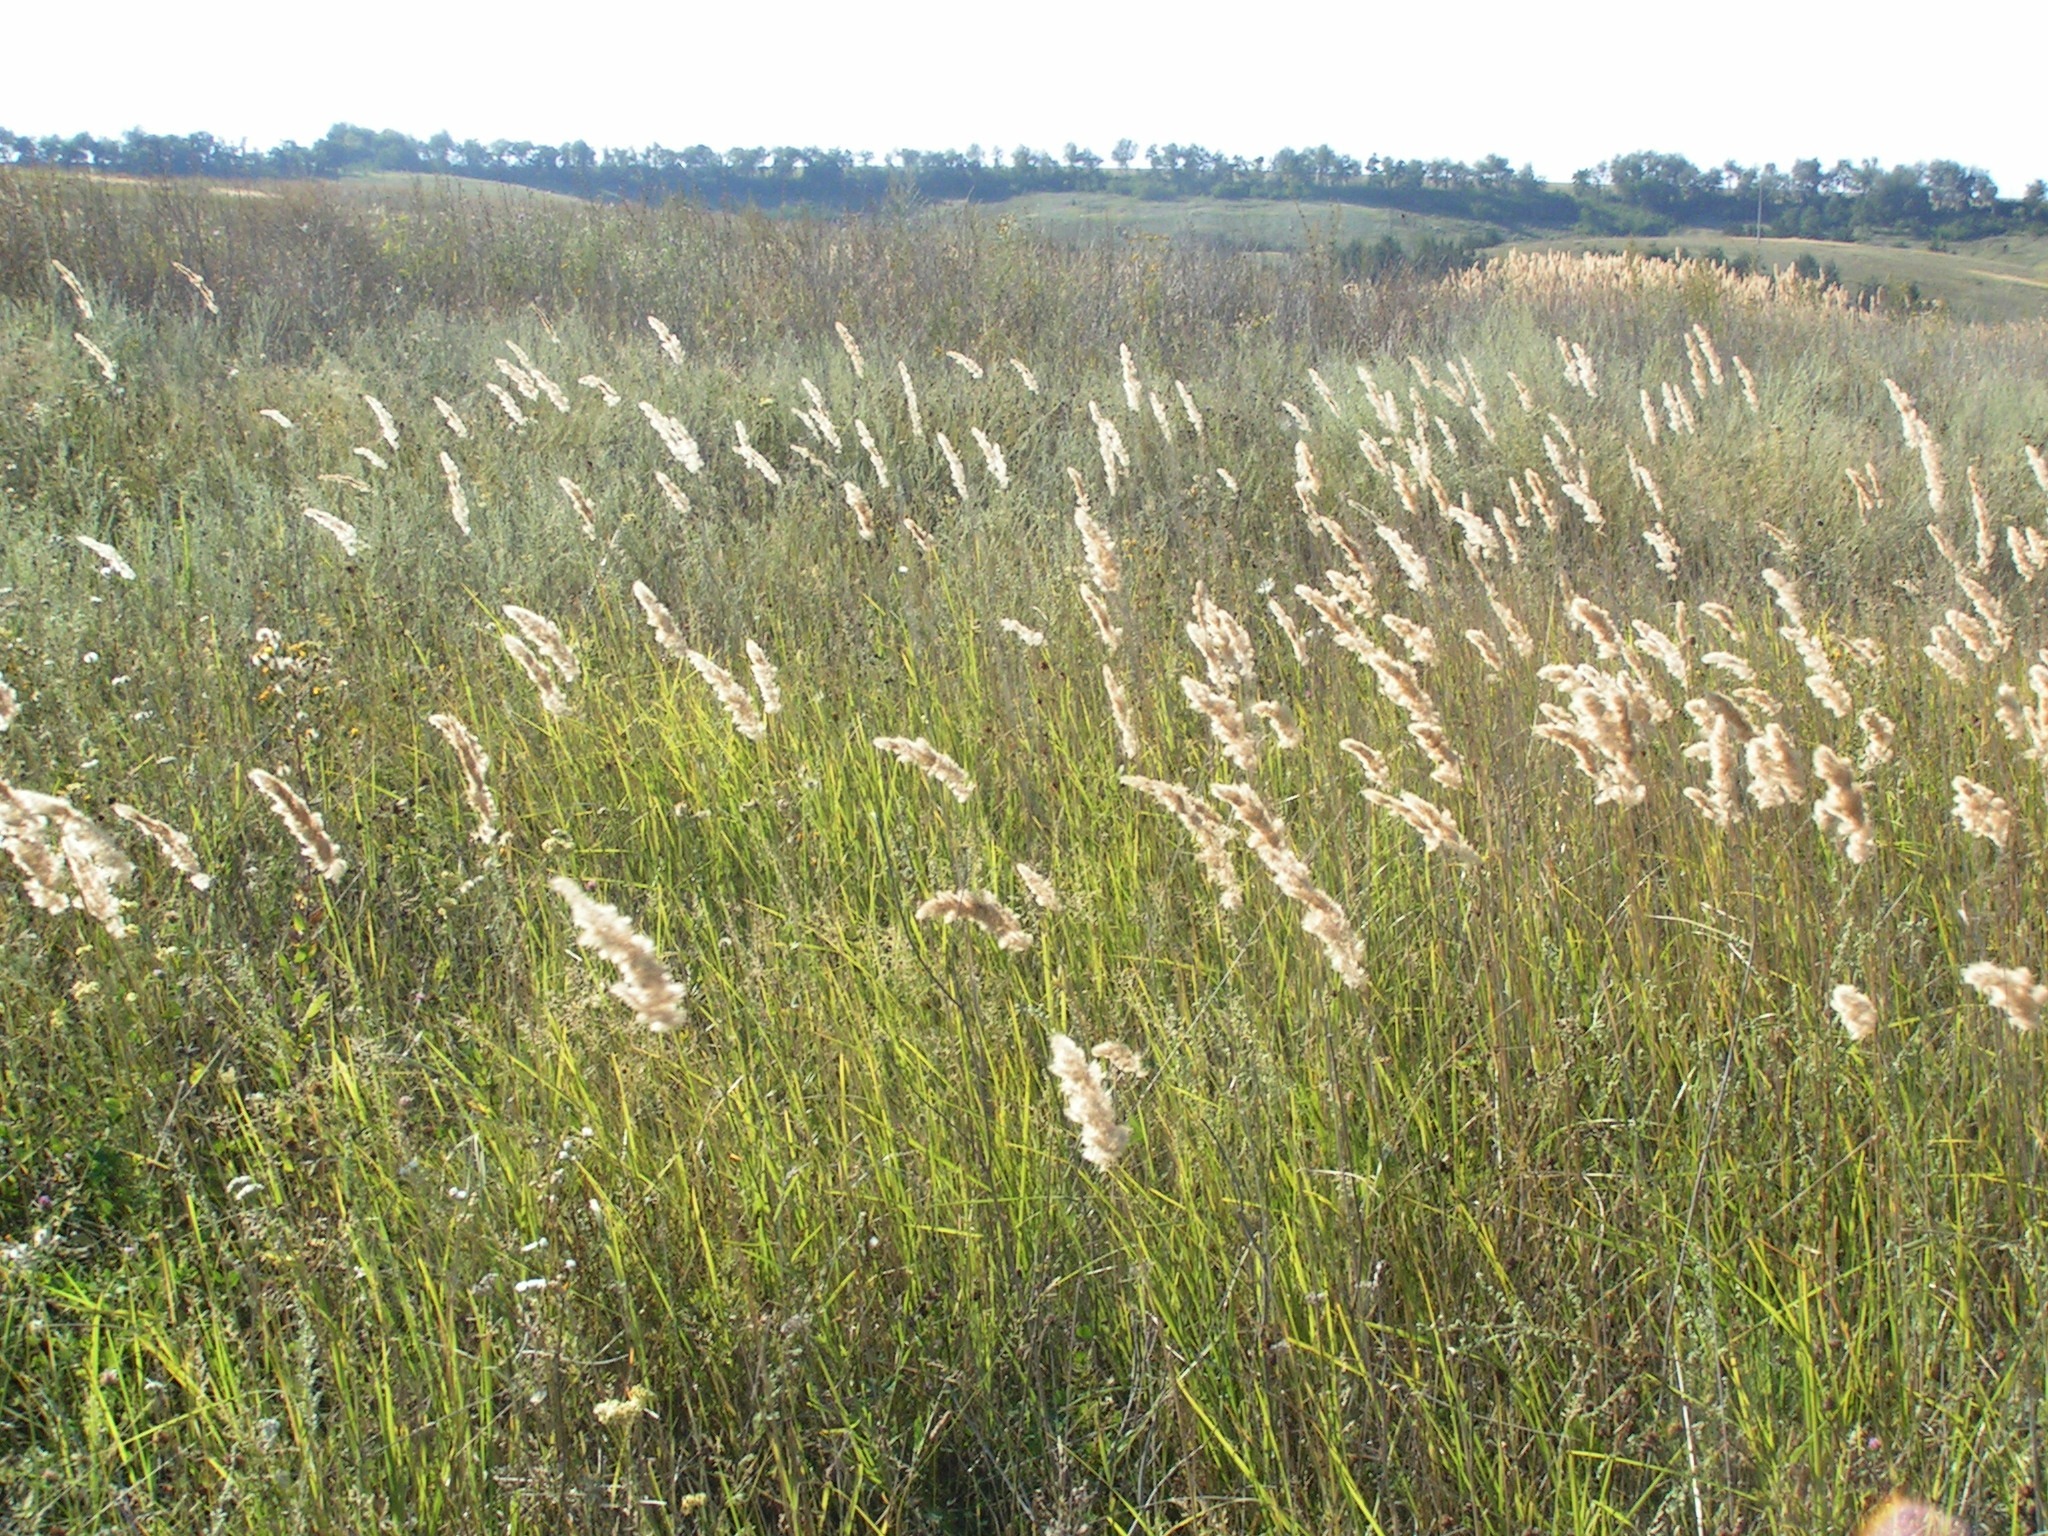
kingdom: Plantae
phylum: Tracheophyta
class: Liliopsida
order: Poales
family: Poaceae
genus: Calamagrostis
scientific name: Calamagrostis epigejos
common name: Wood small-reed
